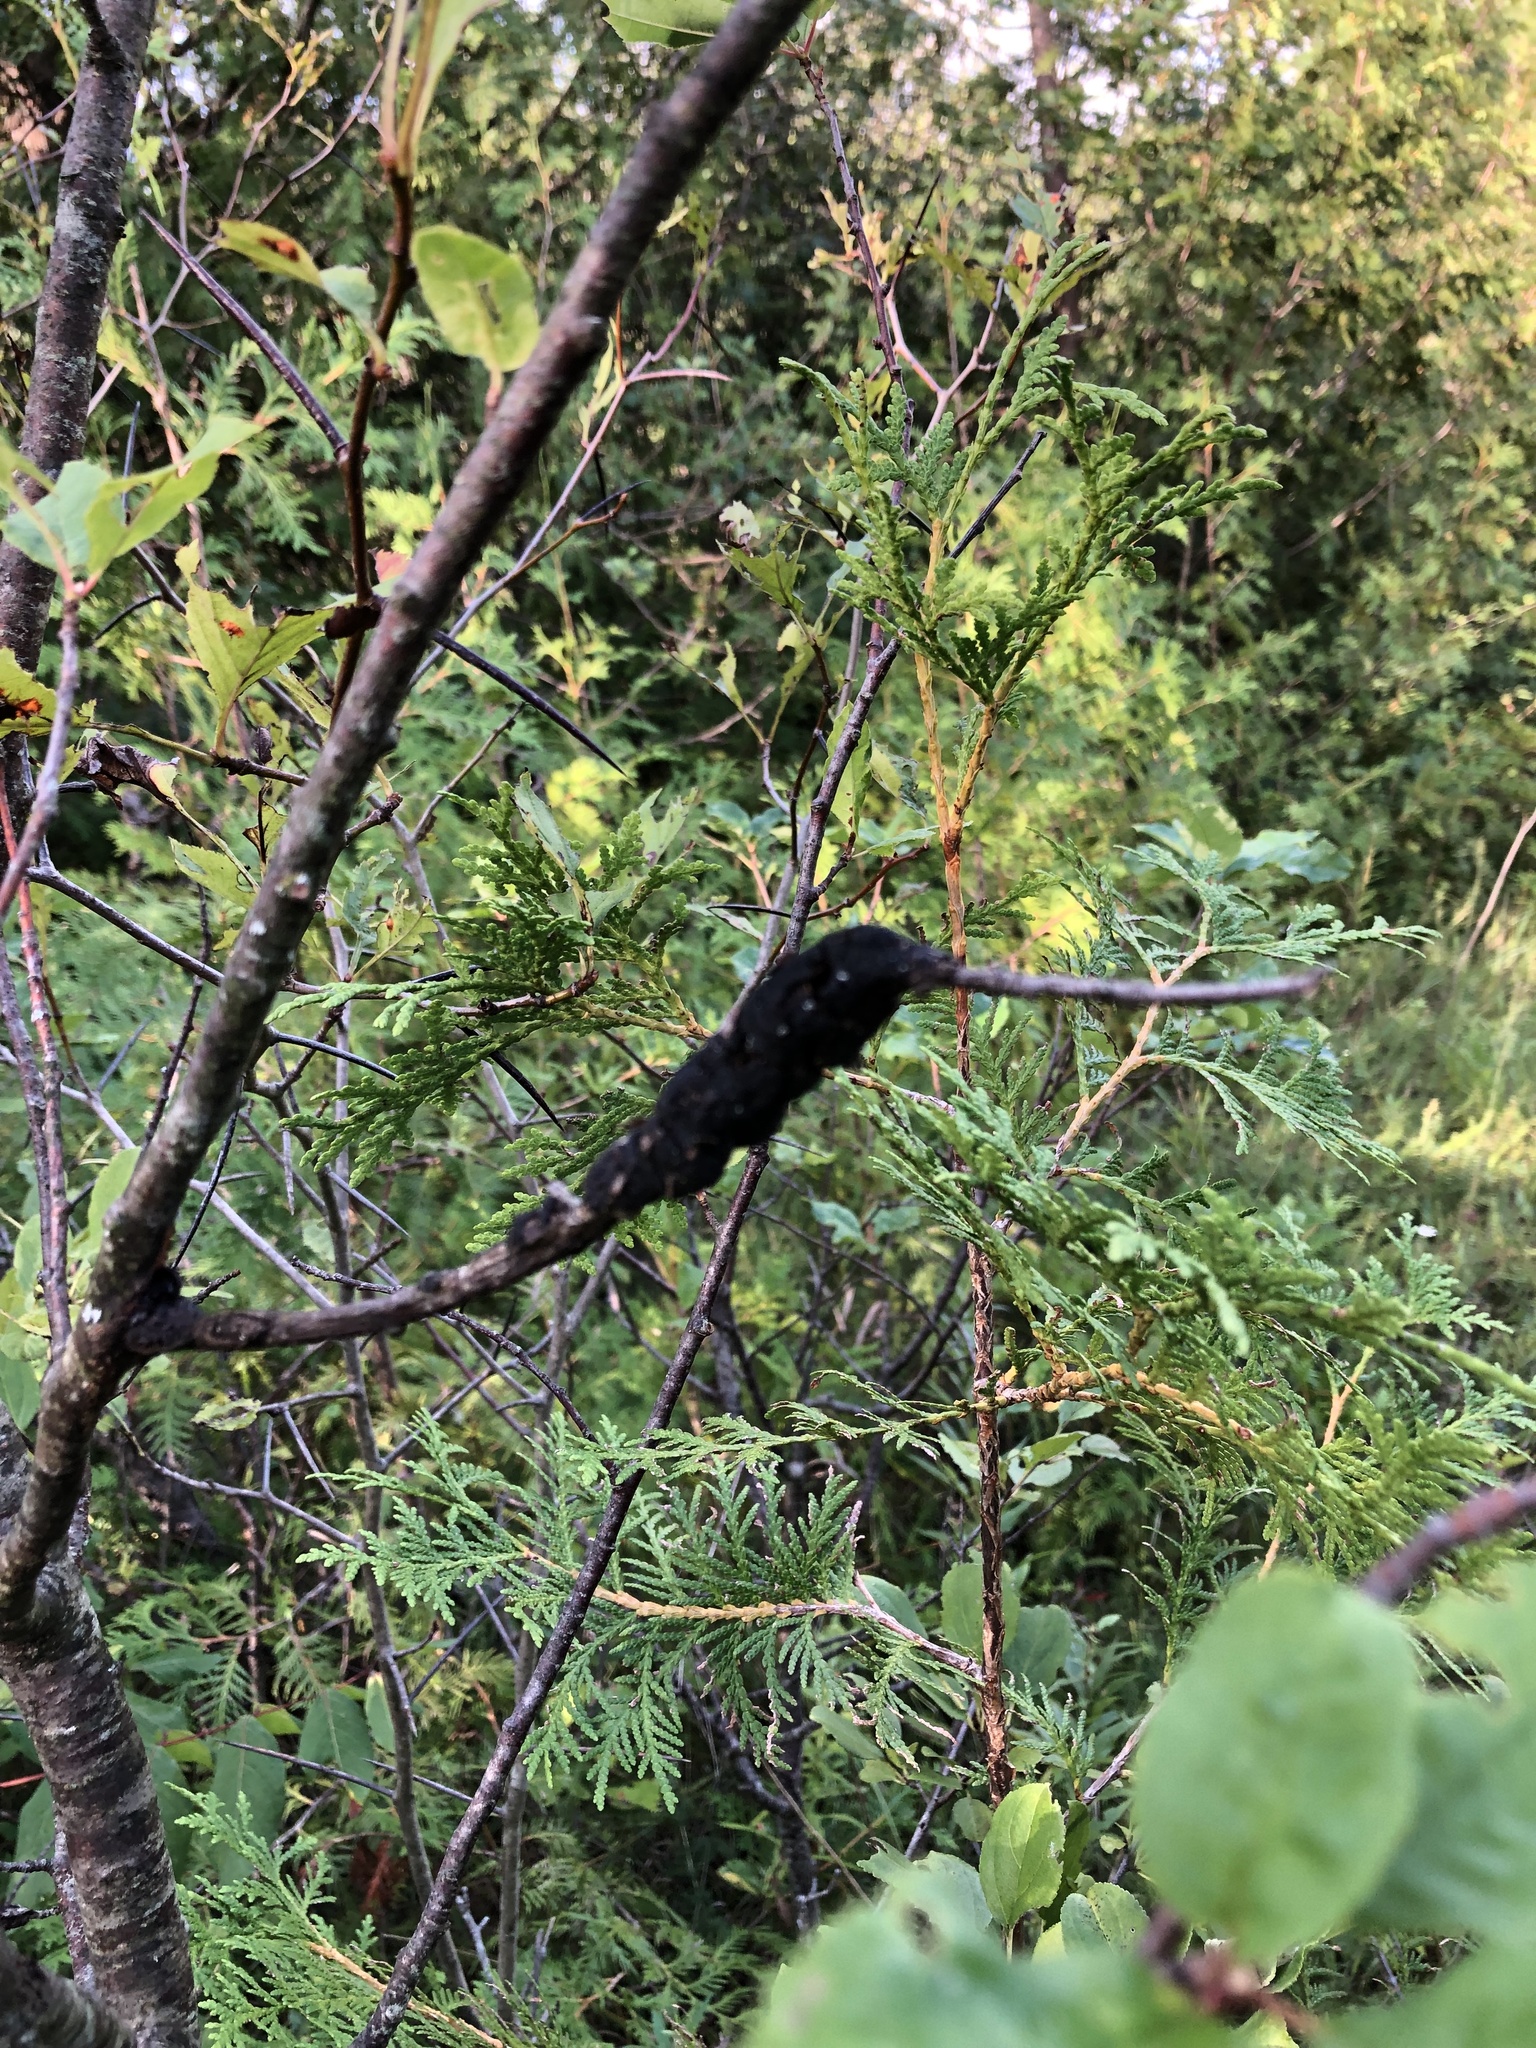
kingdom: Fungi
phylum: Ascomycota
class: Dothideomycetes
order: Venturiales
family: Venturiaceae
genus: Apiosporina
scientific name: Apiosporina morbosa
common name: Black knot
